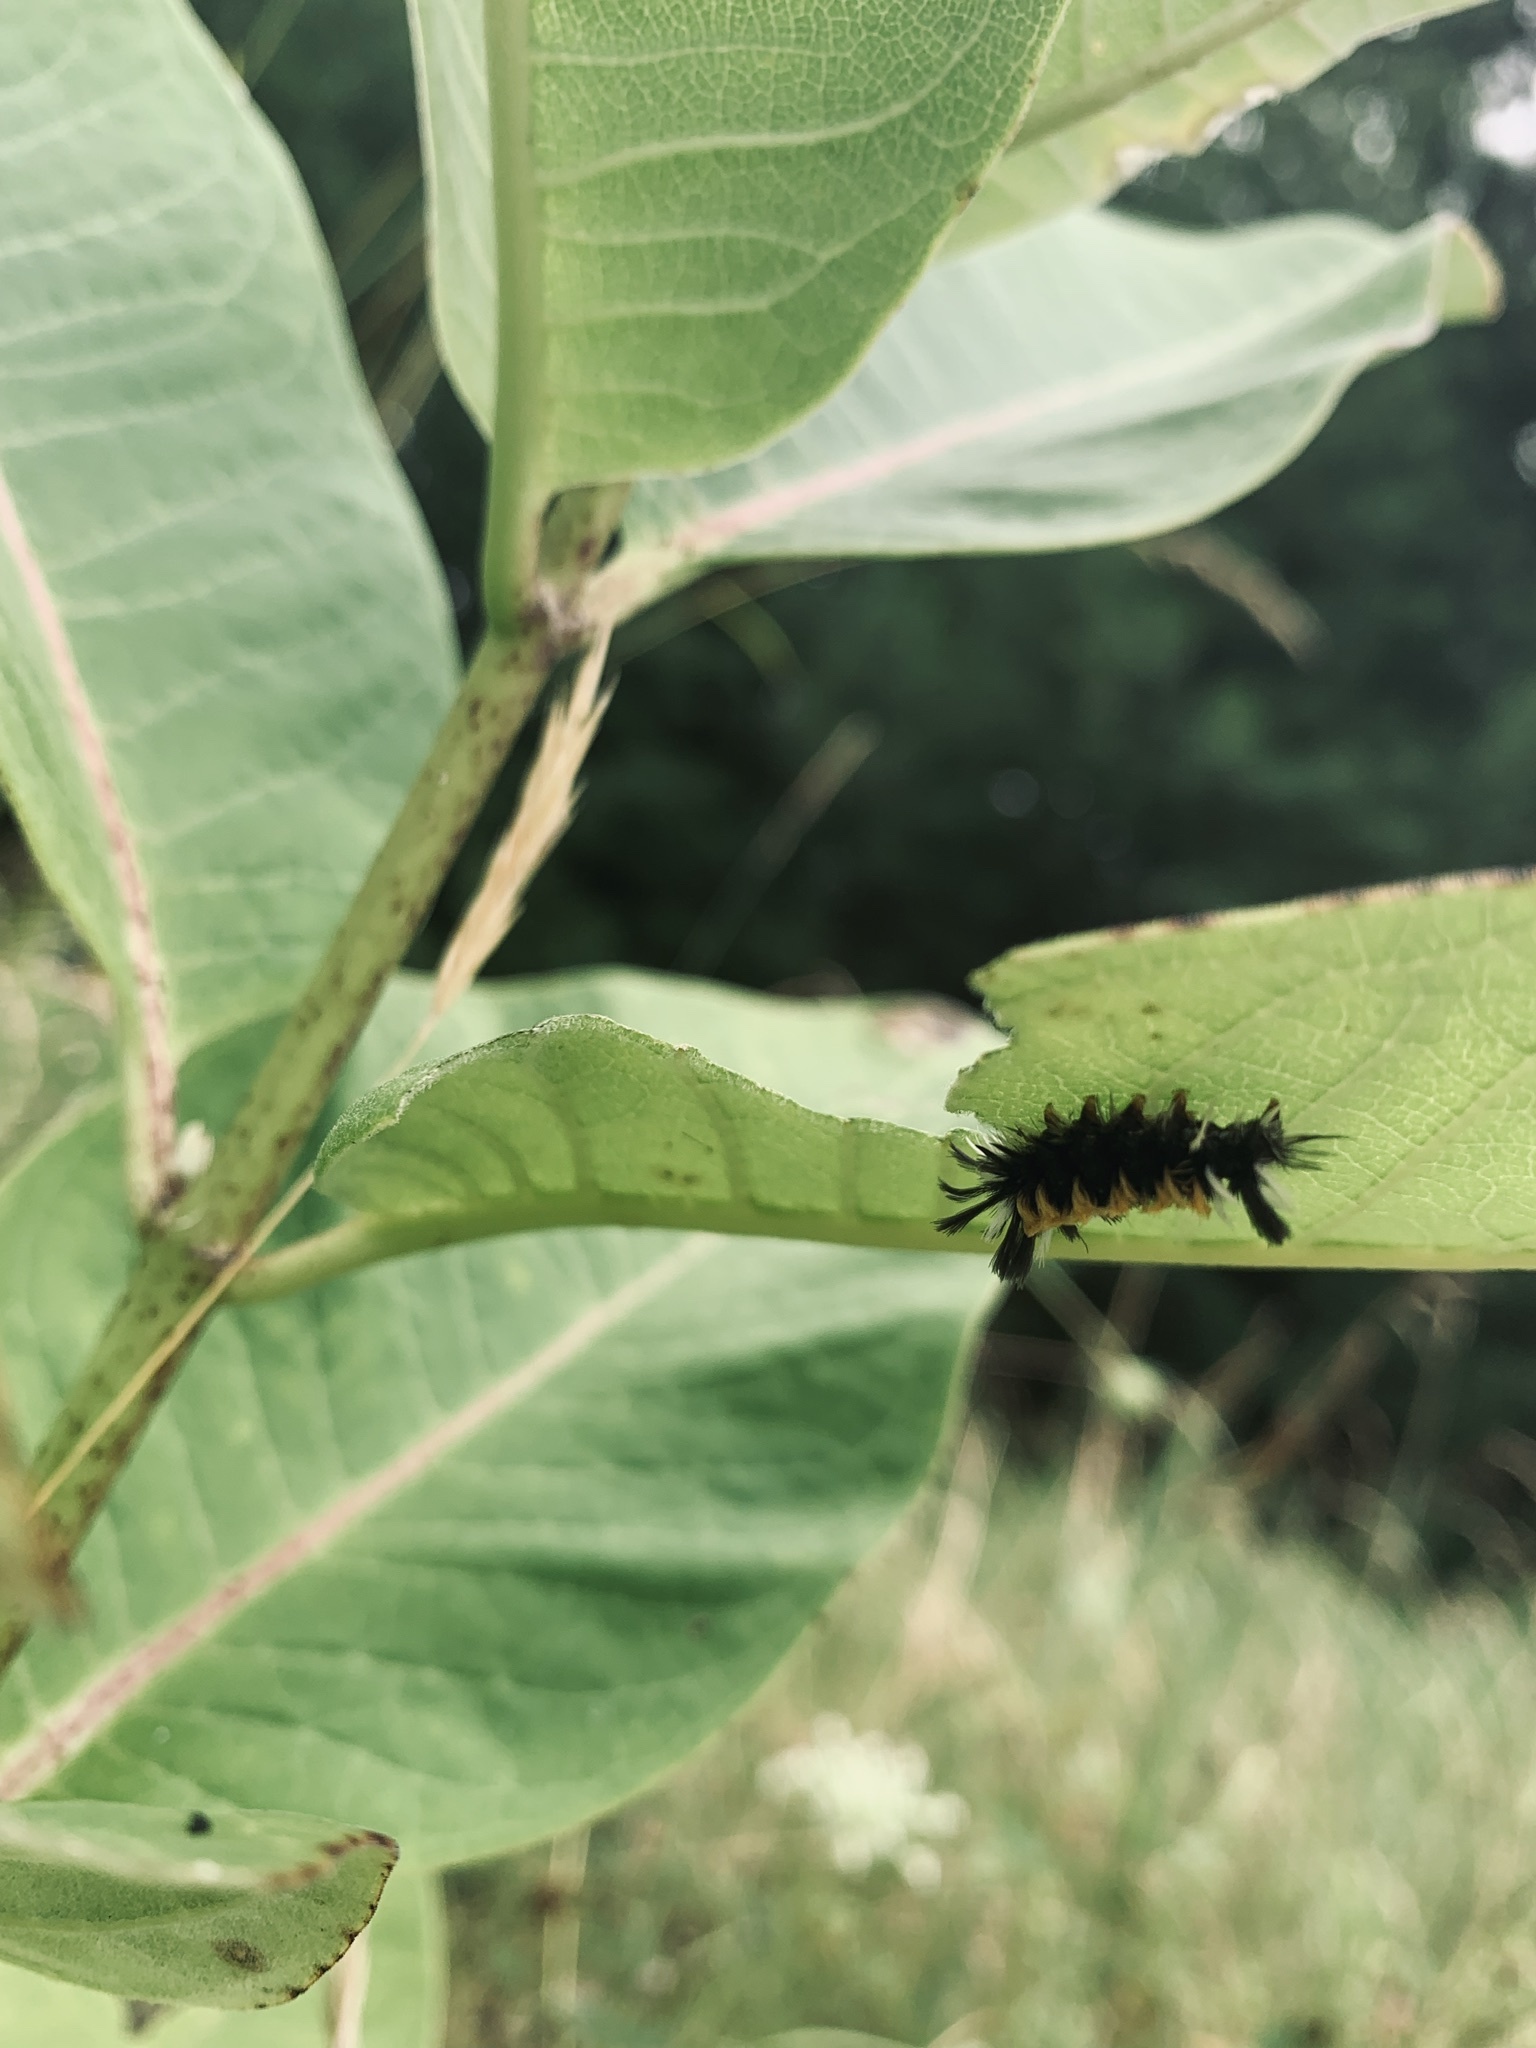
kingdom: Animalia
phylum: Arthropoda
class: Insecta
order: Lepidoptera
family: Erebidae
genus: Euchaetes
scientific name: Euchaetes egle
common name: Milkweed tussock moth
